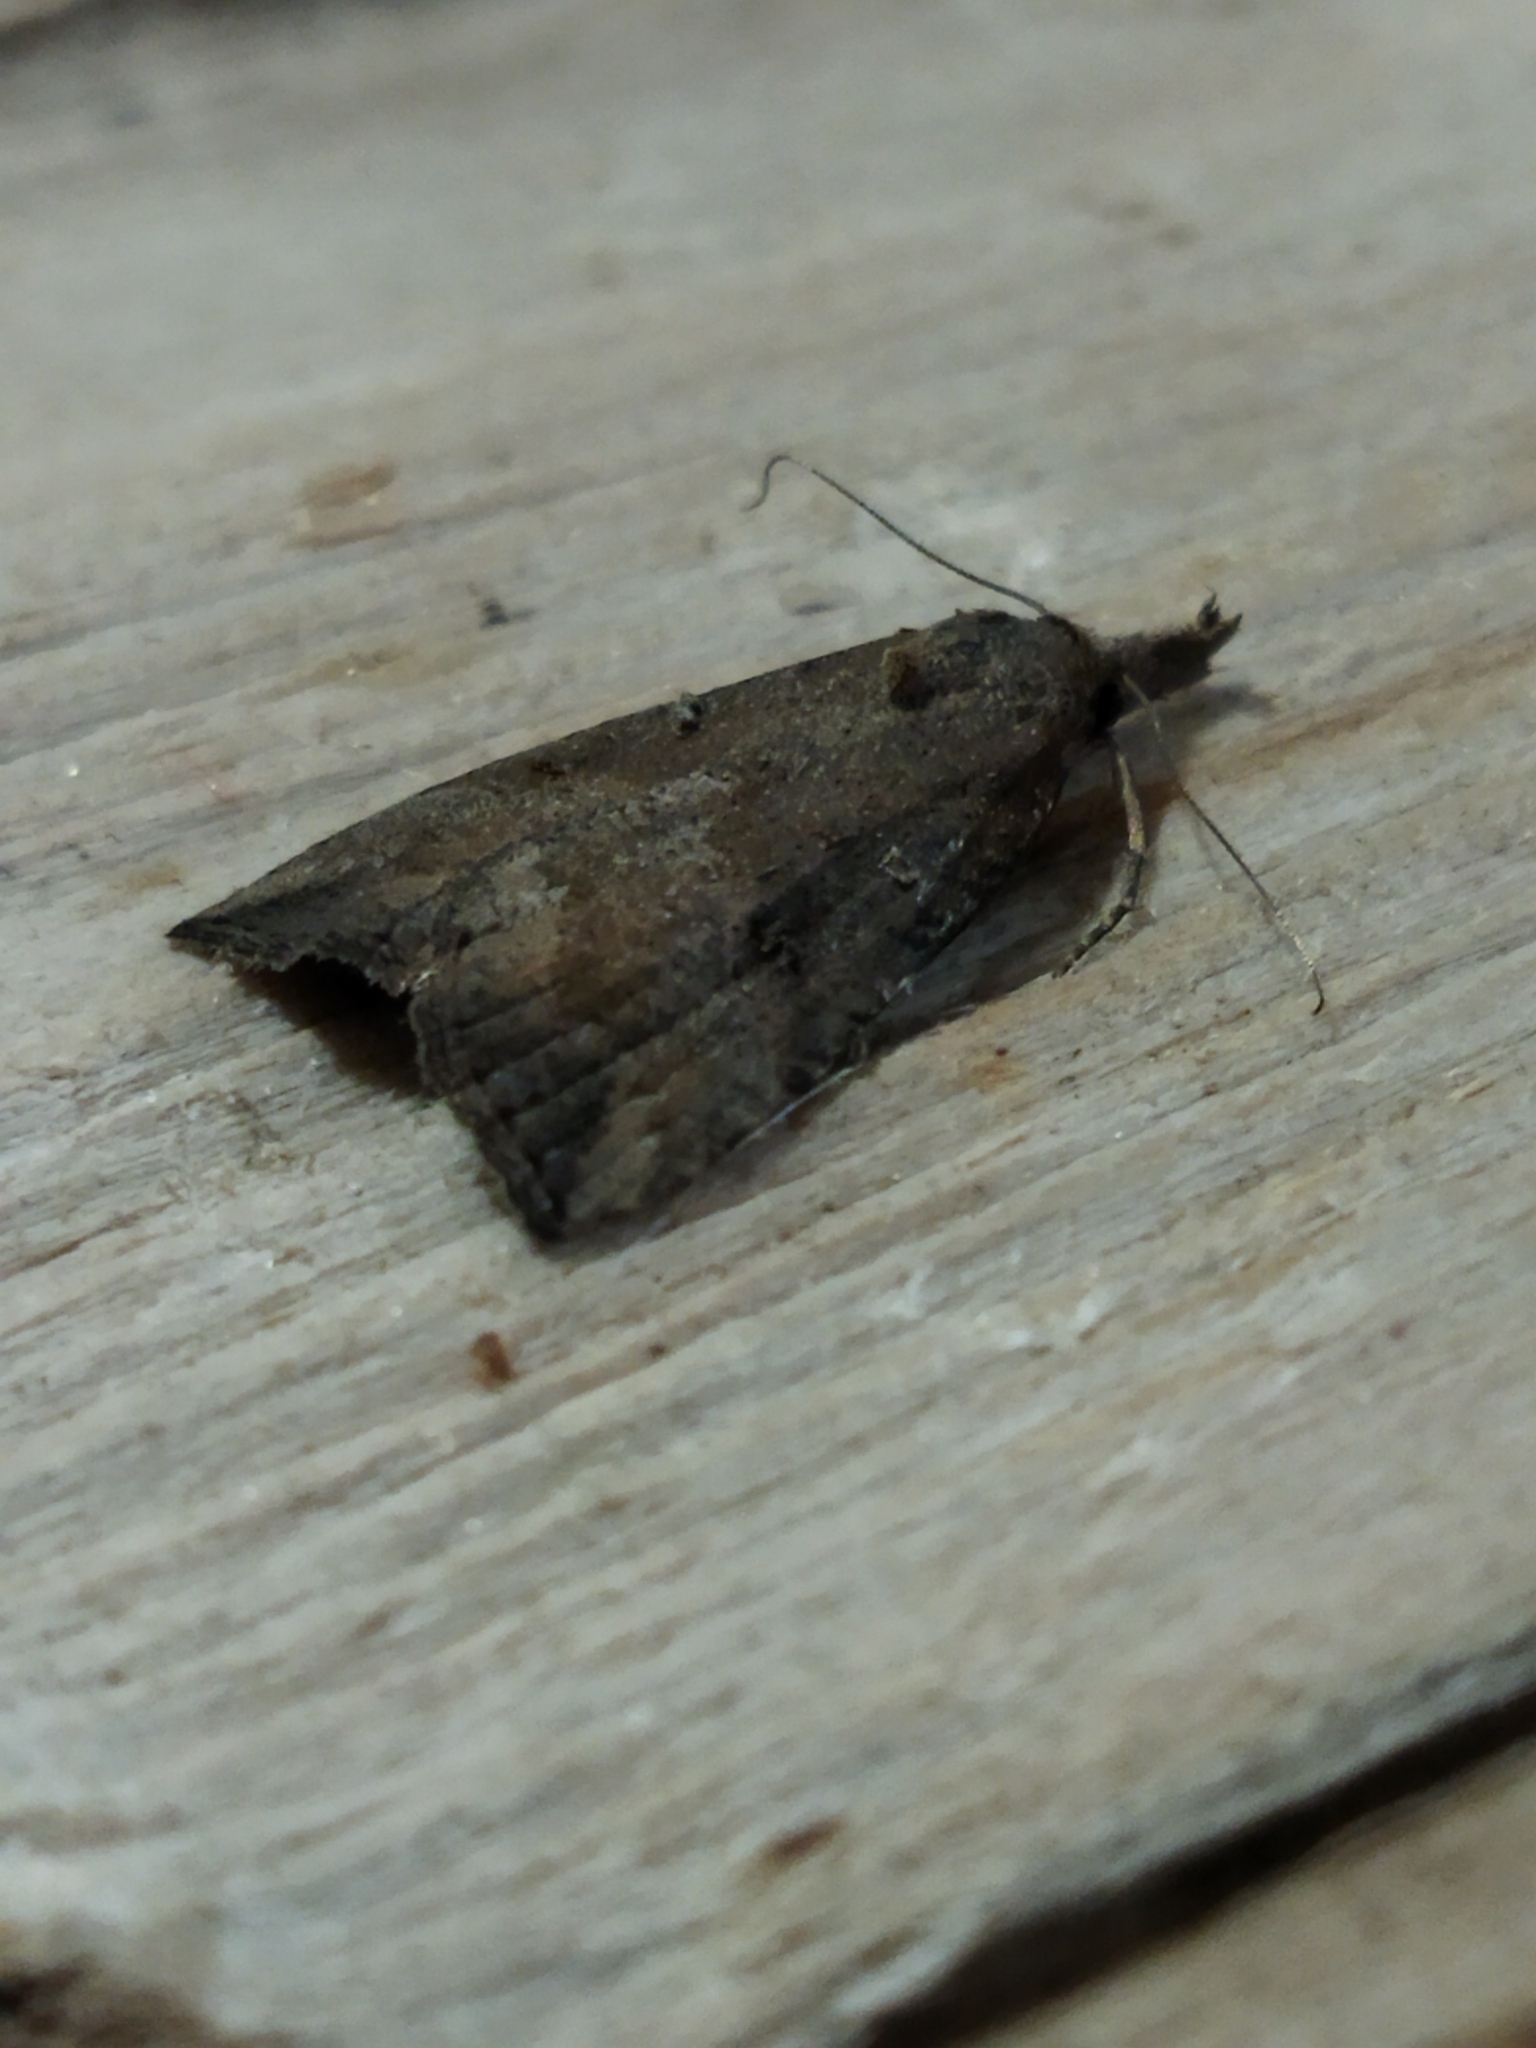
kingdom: Animalia
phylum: Arthropoda
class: Insecta
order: Lepidoptera
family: Erebidae
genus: Hypena
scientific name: Hypena rostralis
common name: Buttoned snout
